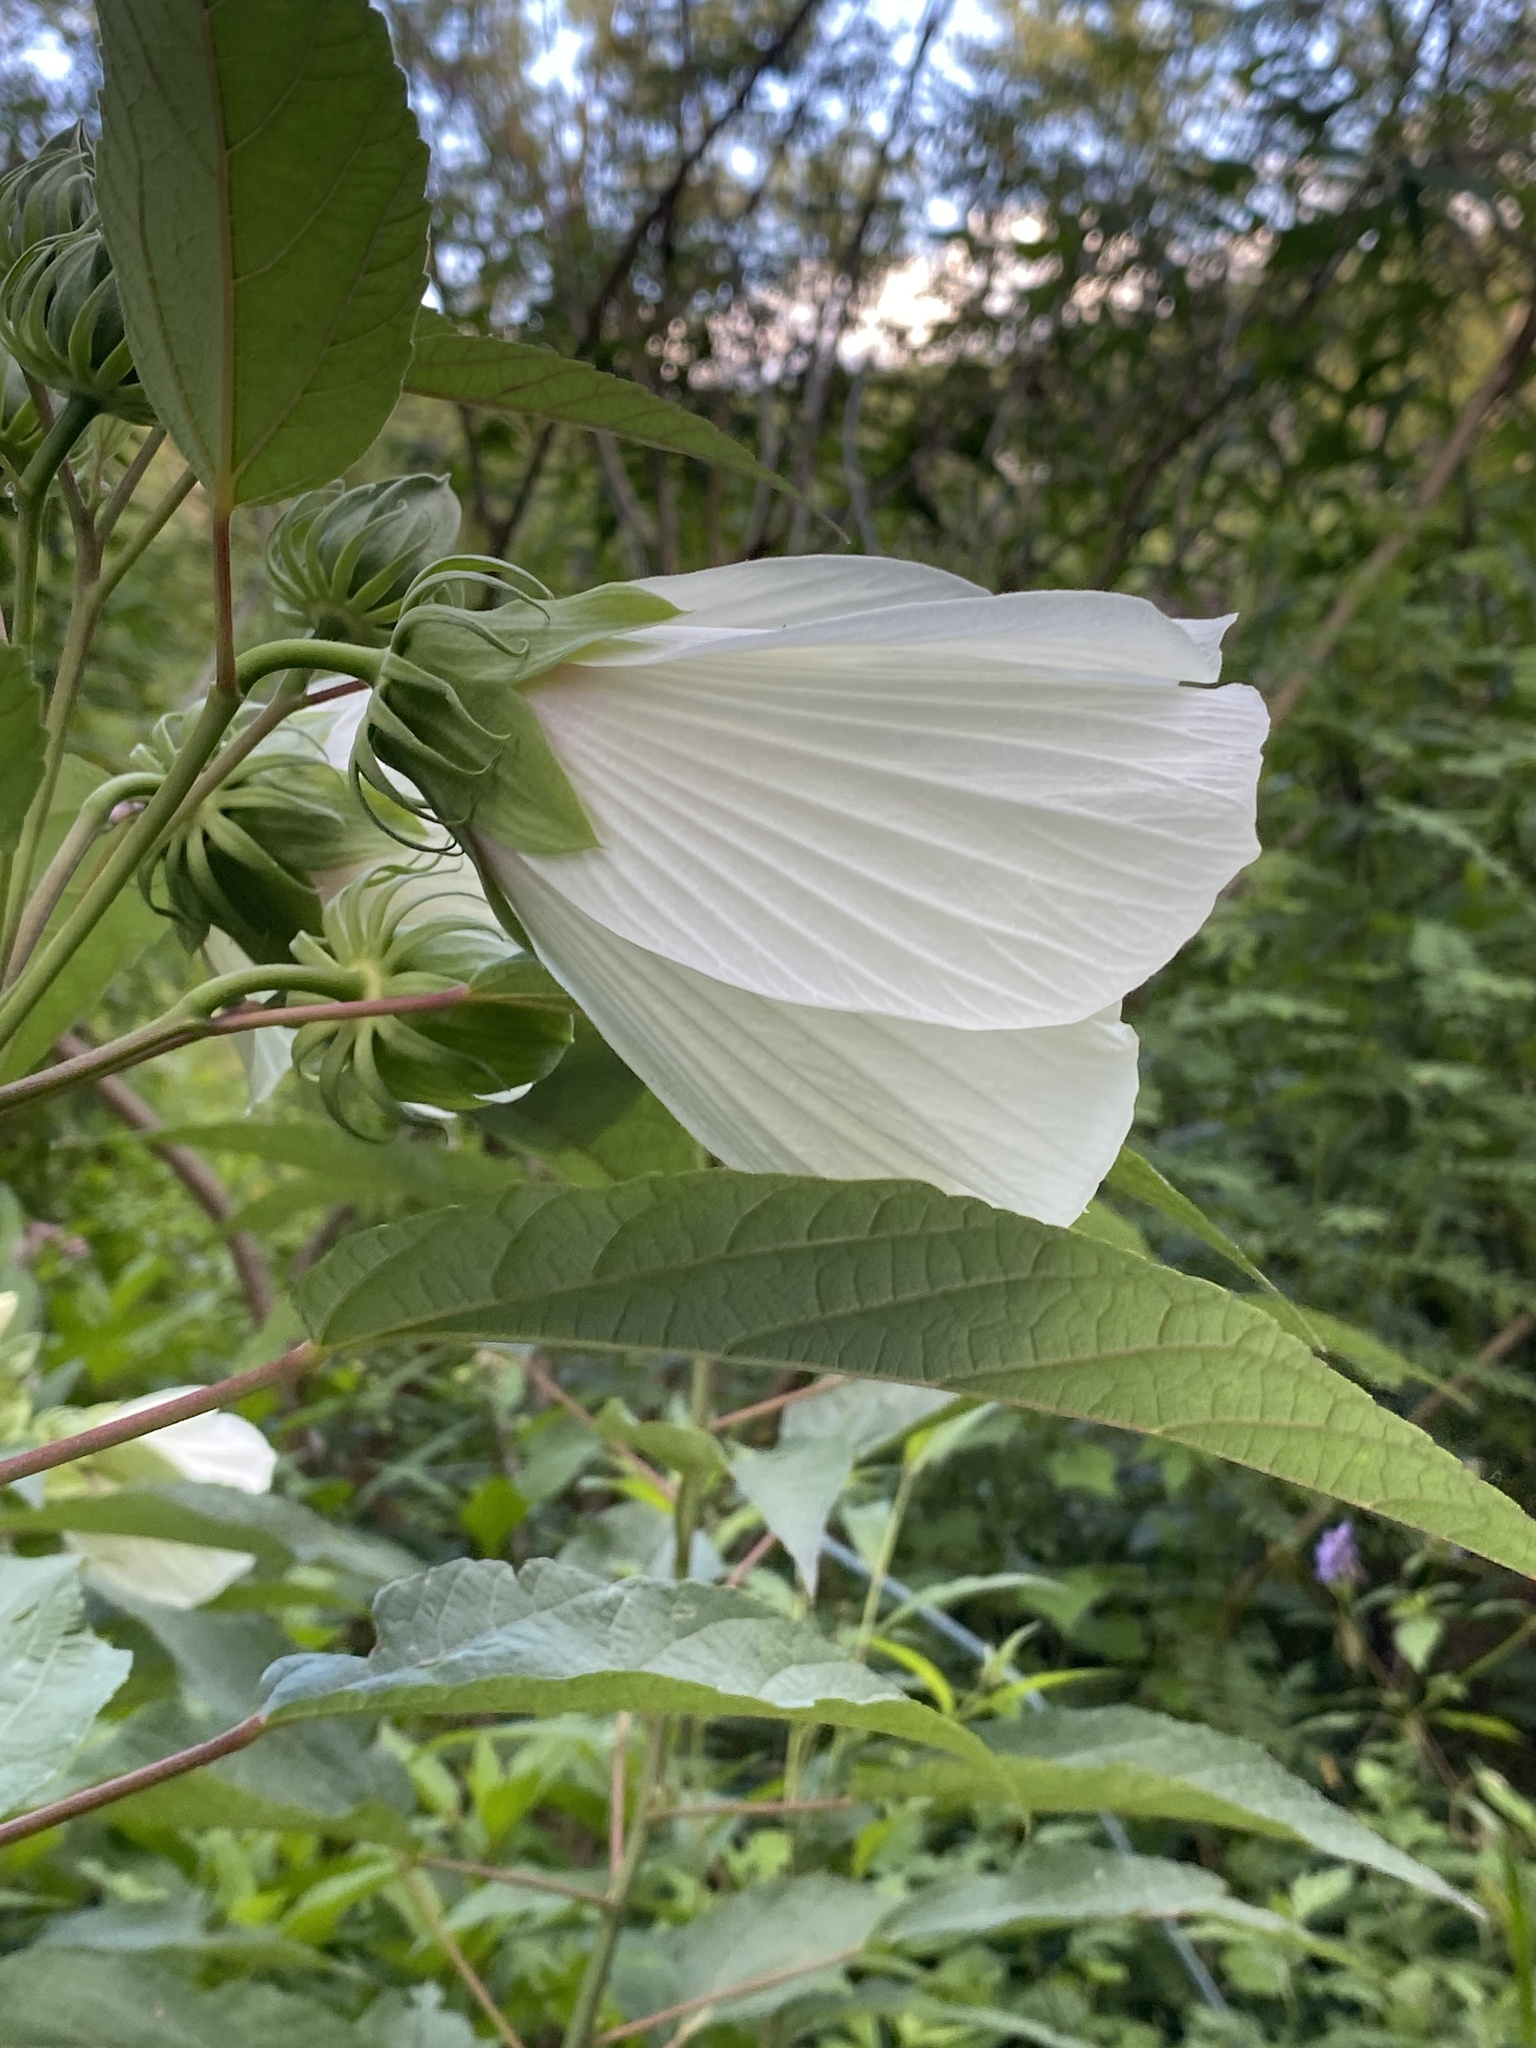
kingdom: Plantae
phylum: Tracheophyta
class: Magnoliopsida
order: Malvales
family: Malvaceae
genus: Hibiscus
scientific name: Hibiscus moscheutos
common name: Common rose-mallow
